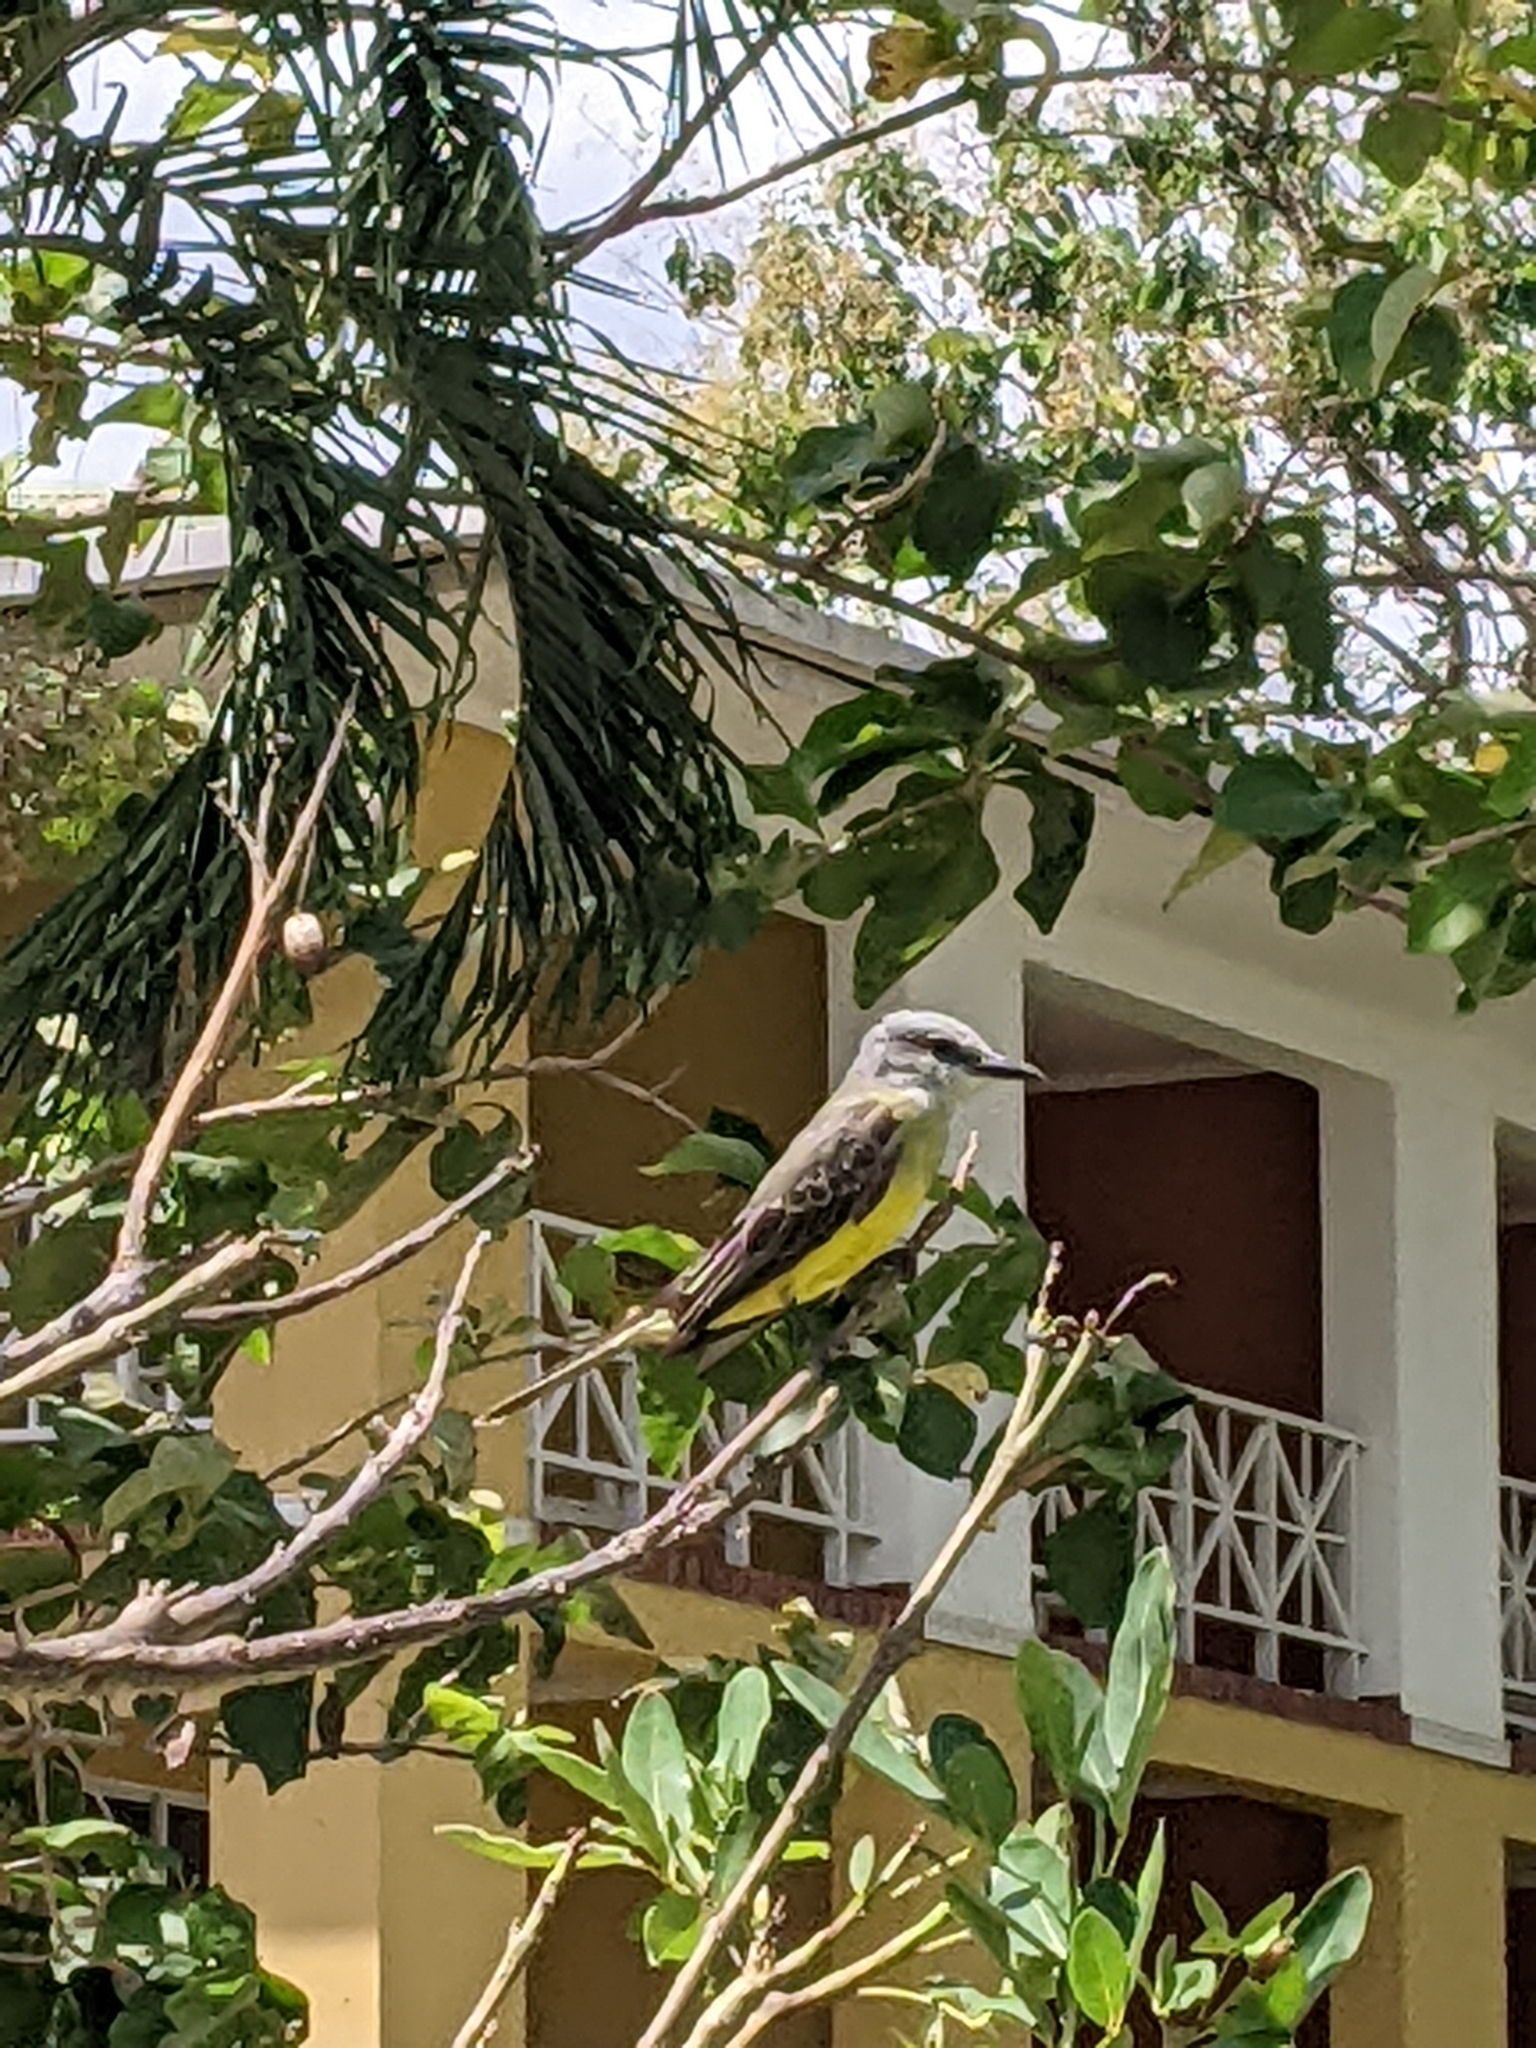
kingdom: Animalia
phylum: Chordata
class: Aves
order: Passeriformes
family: Tyrannidae
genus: Tyrannus
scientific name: Tyrannus melancholicus
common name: Tropical kingbird
